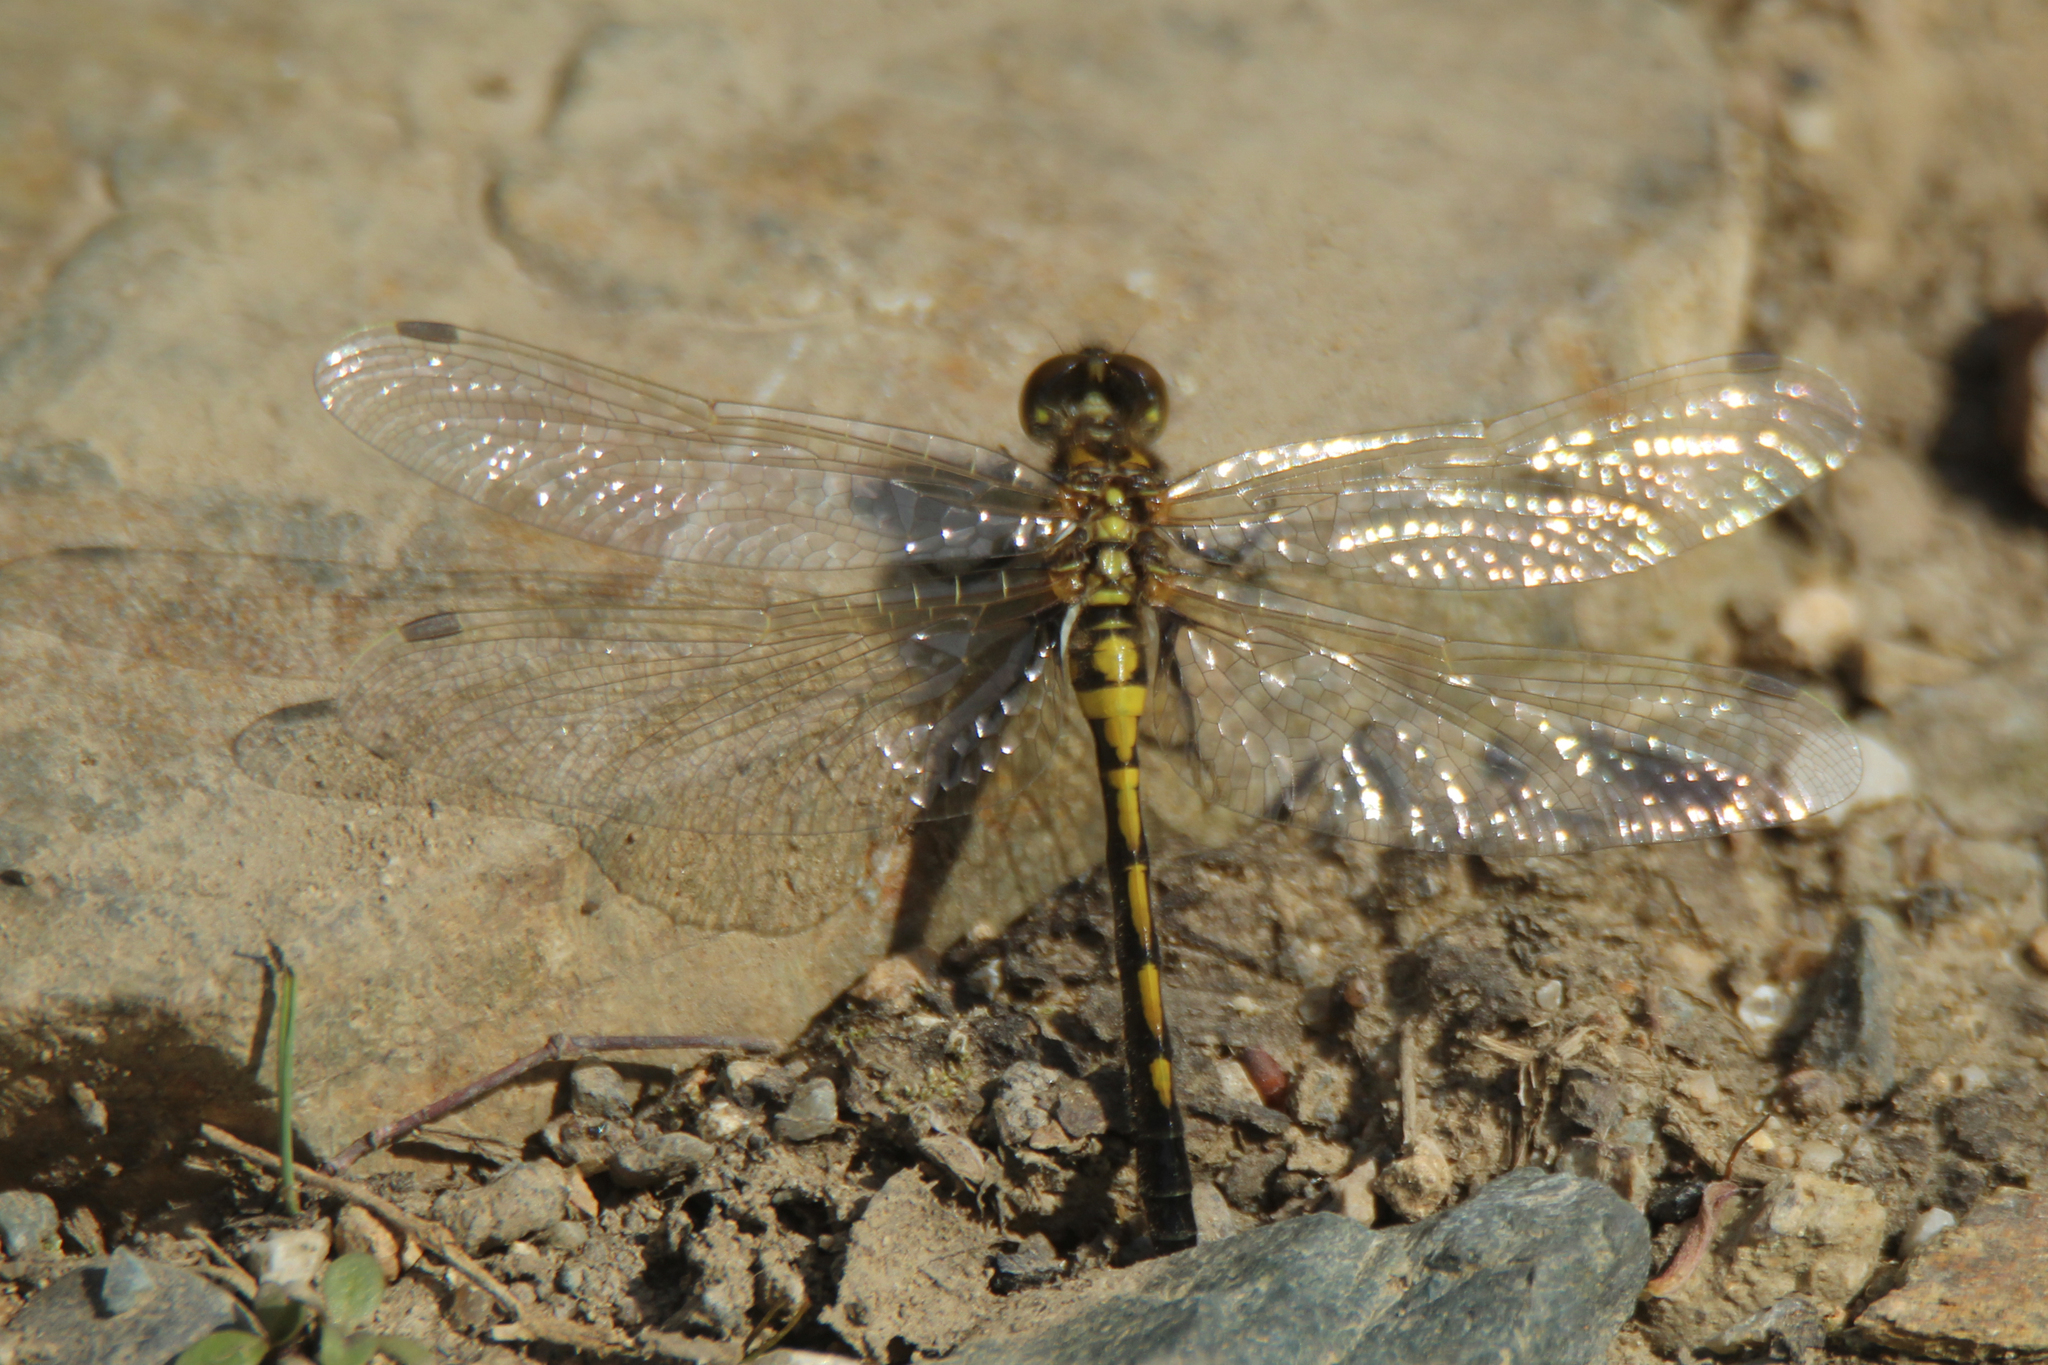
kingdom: Animalia
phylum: Arthropoda
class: Insecta
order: Odonata
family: Libellulidae
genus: Leucorrhinia
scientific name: Leucorrhinia intermedia
